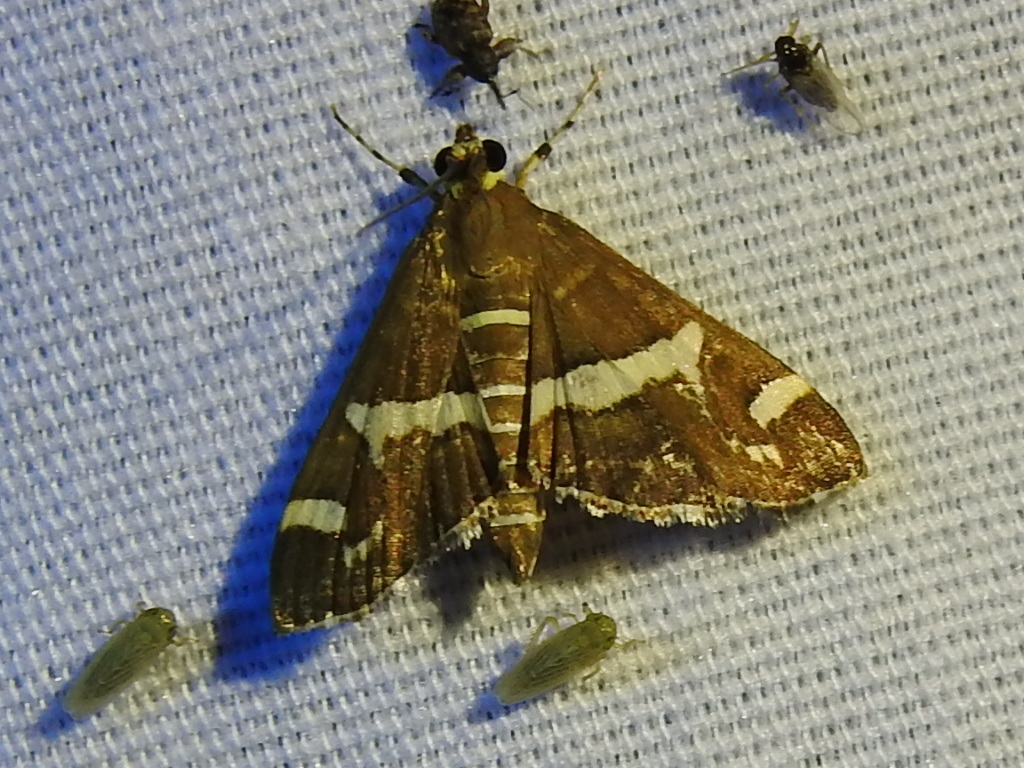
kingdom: Animalia
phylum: Arthropoda
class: Insecta
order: Lepidoptera
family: Crambidae
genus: Spoladea
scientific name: Spoladea recurvalis
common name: Beet webworm moth
